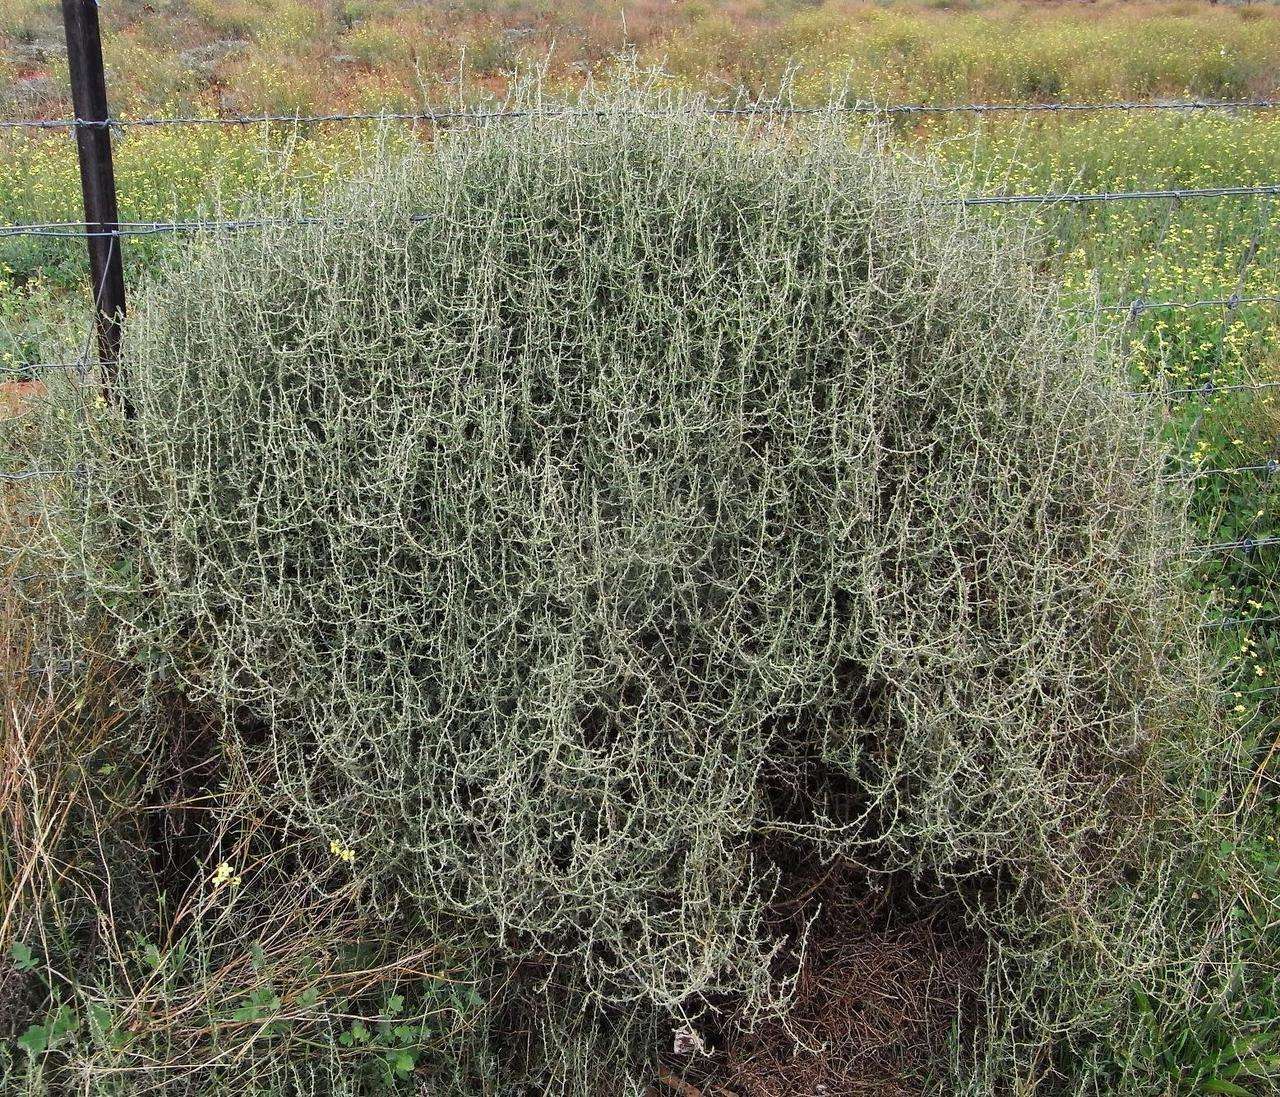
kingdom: Plantae
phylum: Tracheophyta
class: Magnoliopsida
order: Caryophyllales
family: Amaranthaceae
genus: Sclerolaena
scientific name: Sclerolaena muricata
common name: Roly-poly
